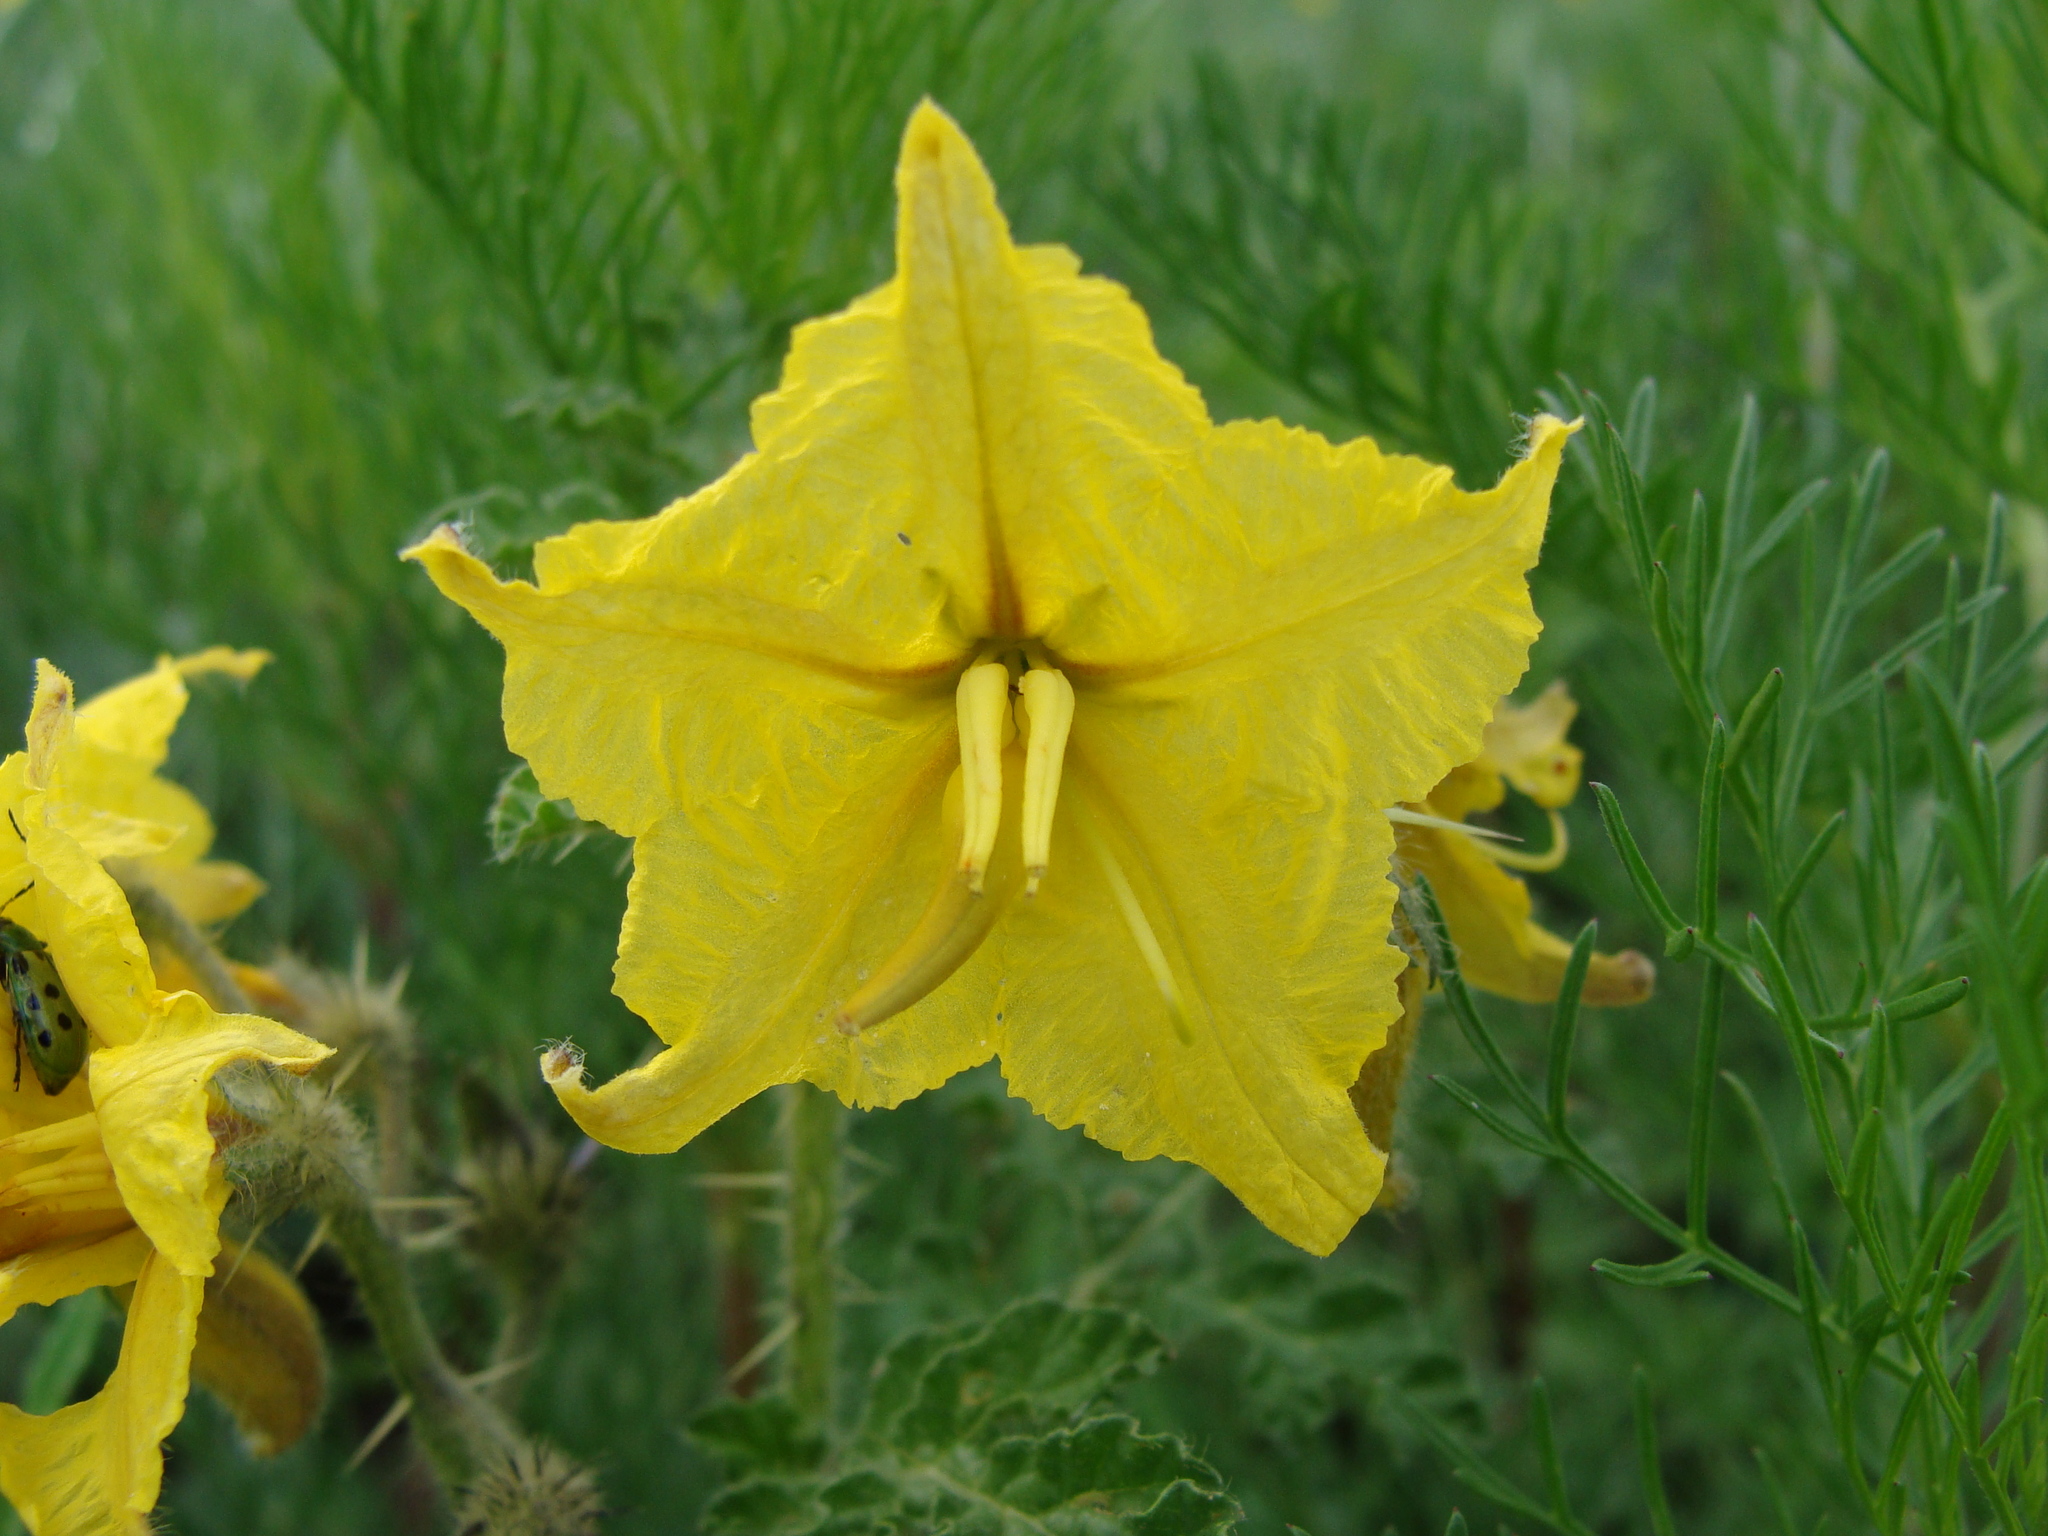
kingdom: Plantae
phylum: Tracheophyta
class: Magnoliopsida
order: Solanales
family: Solanaceae
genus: Solanum
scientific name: Solanum angustifolium
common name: Buffalobur nightshade
